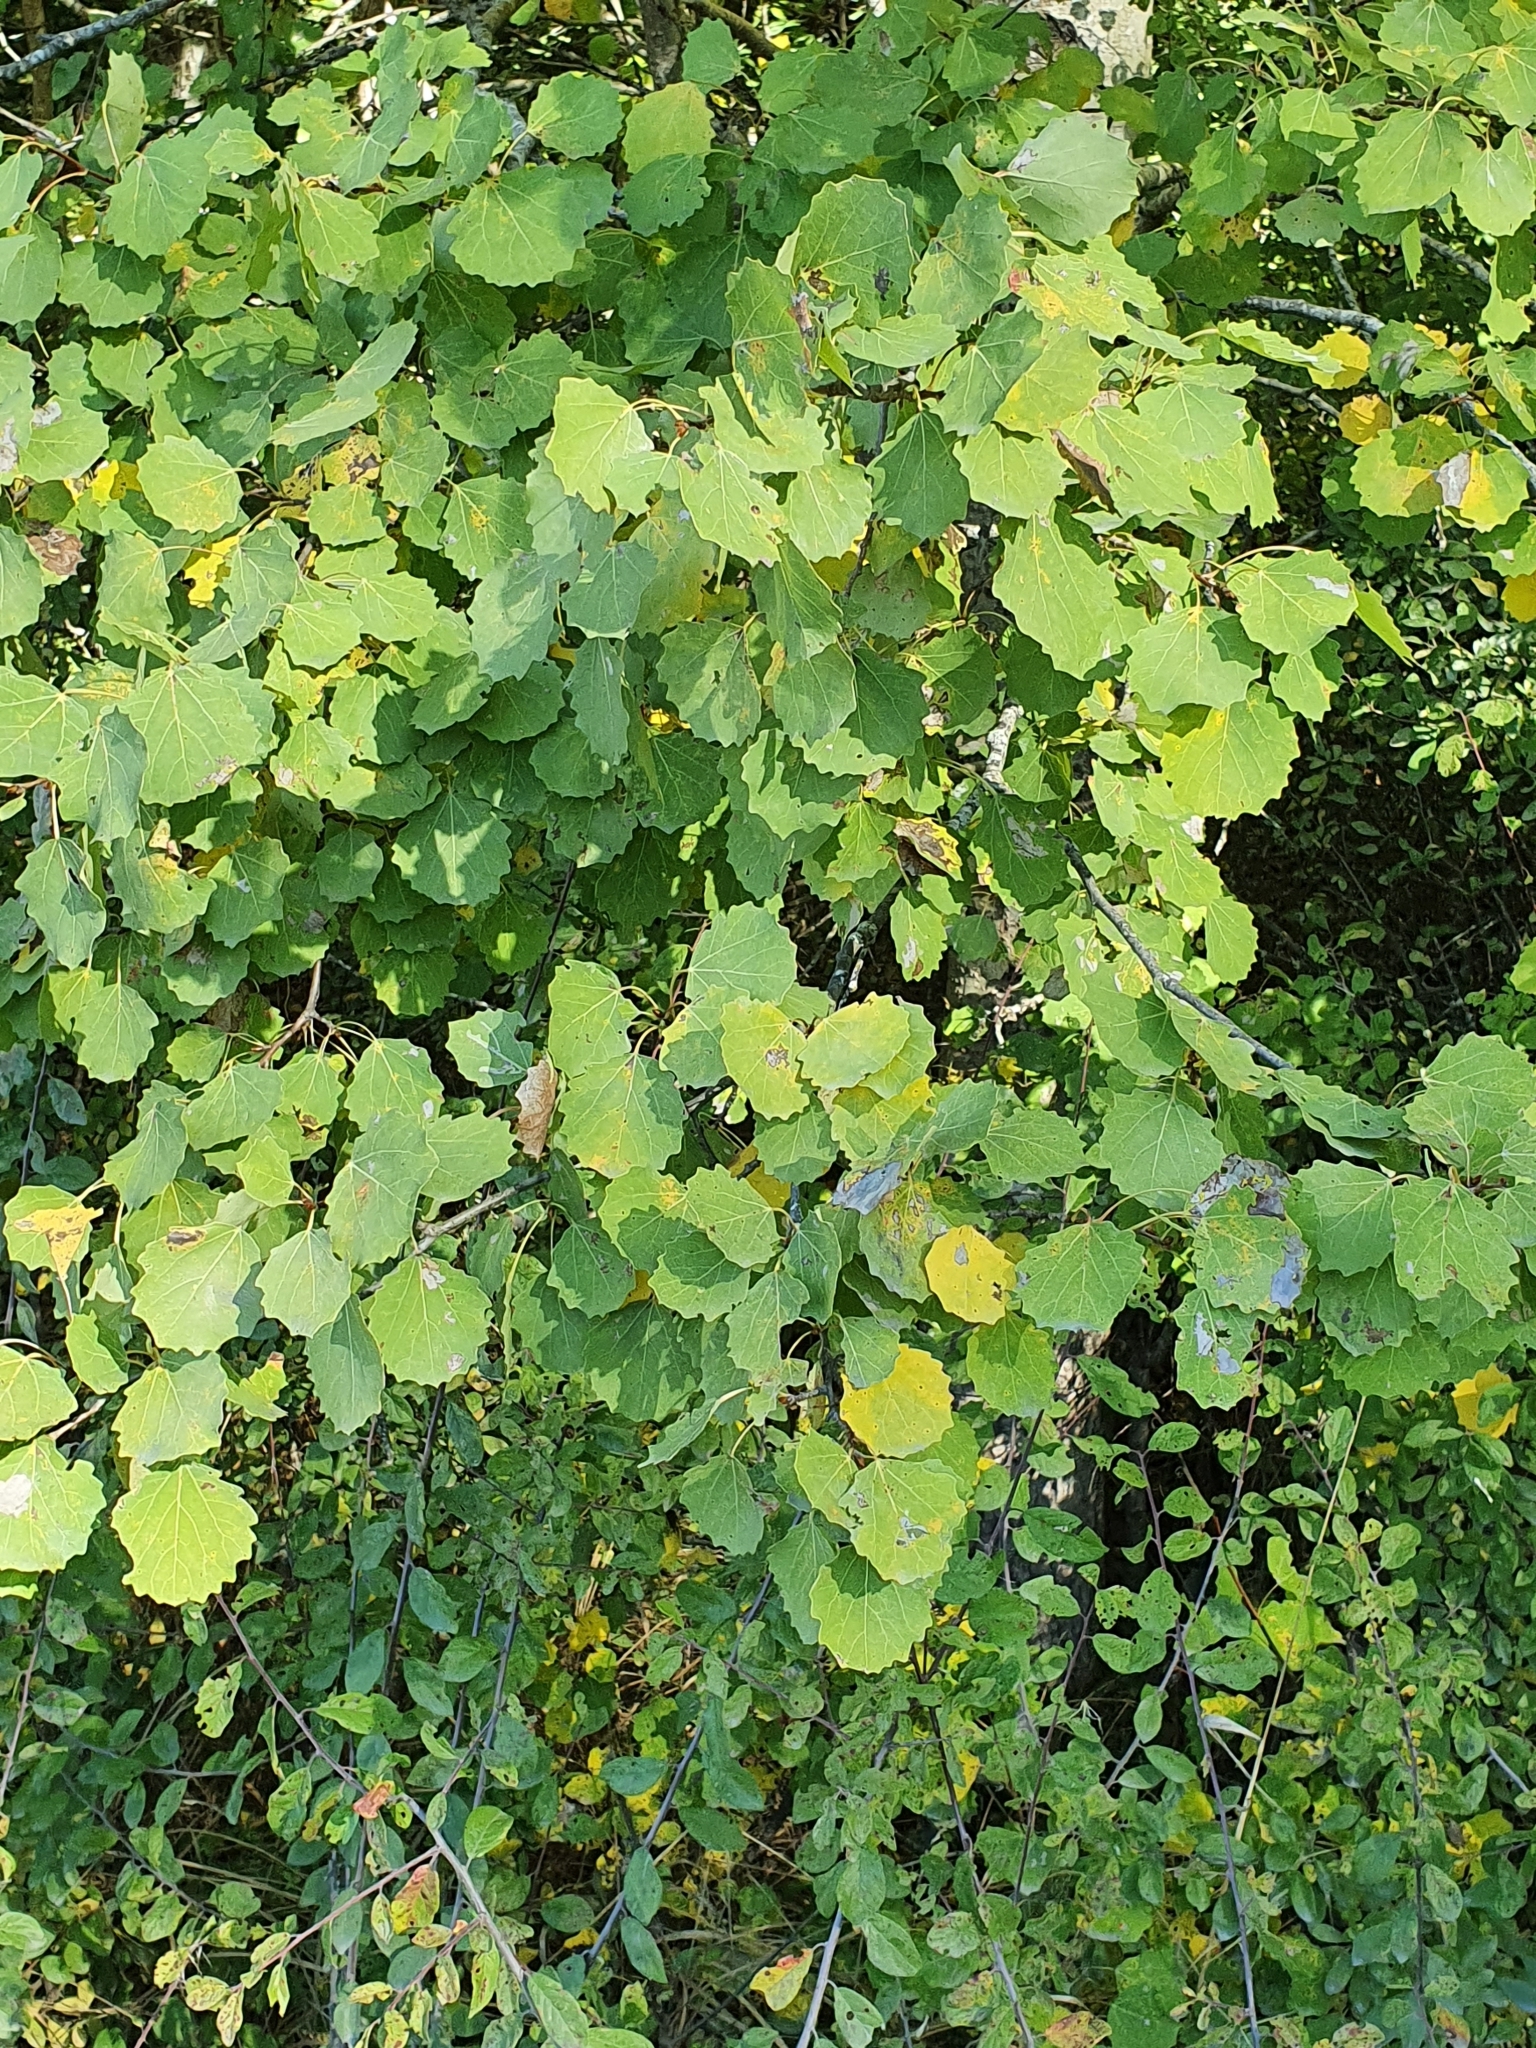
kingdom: Plantae
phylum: Tracheophyta
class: Magnoliopsida
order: Malpighiales
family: Salicaceae
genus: Populus
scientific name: Populus tremula
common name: European aspen
